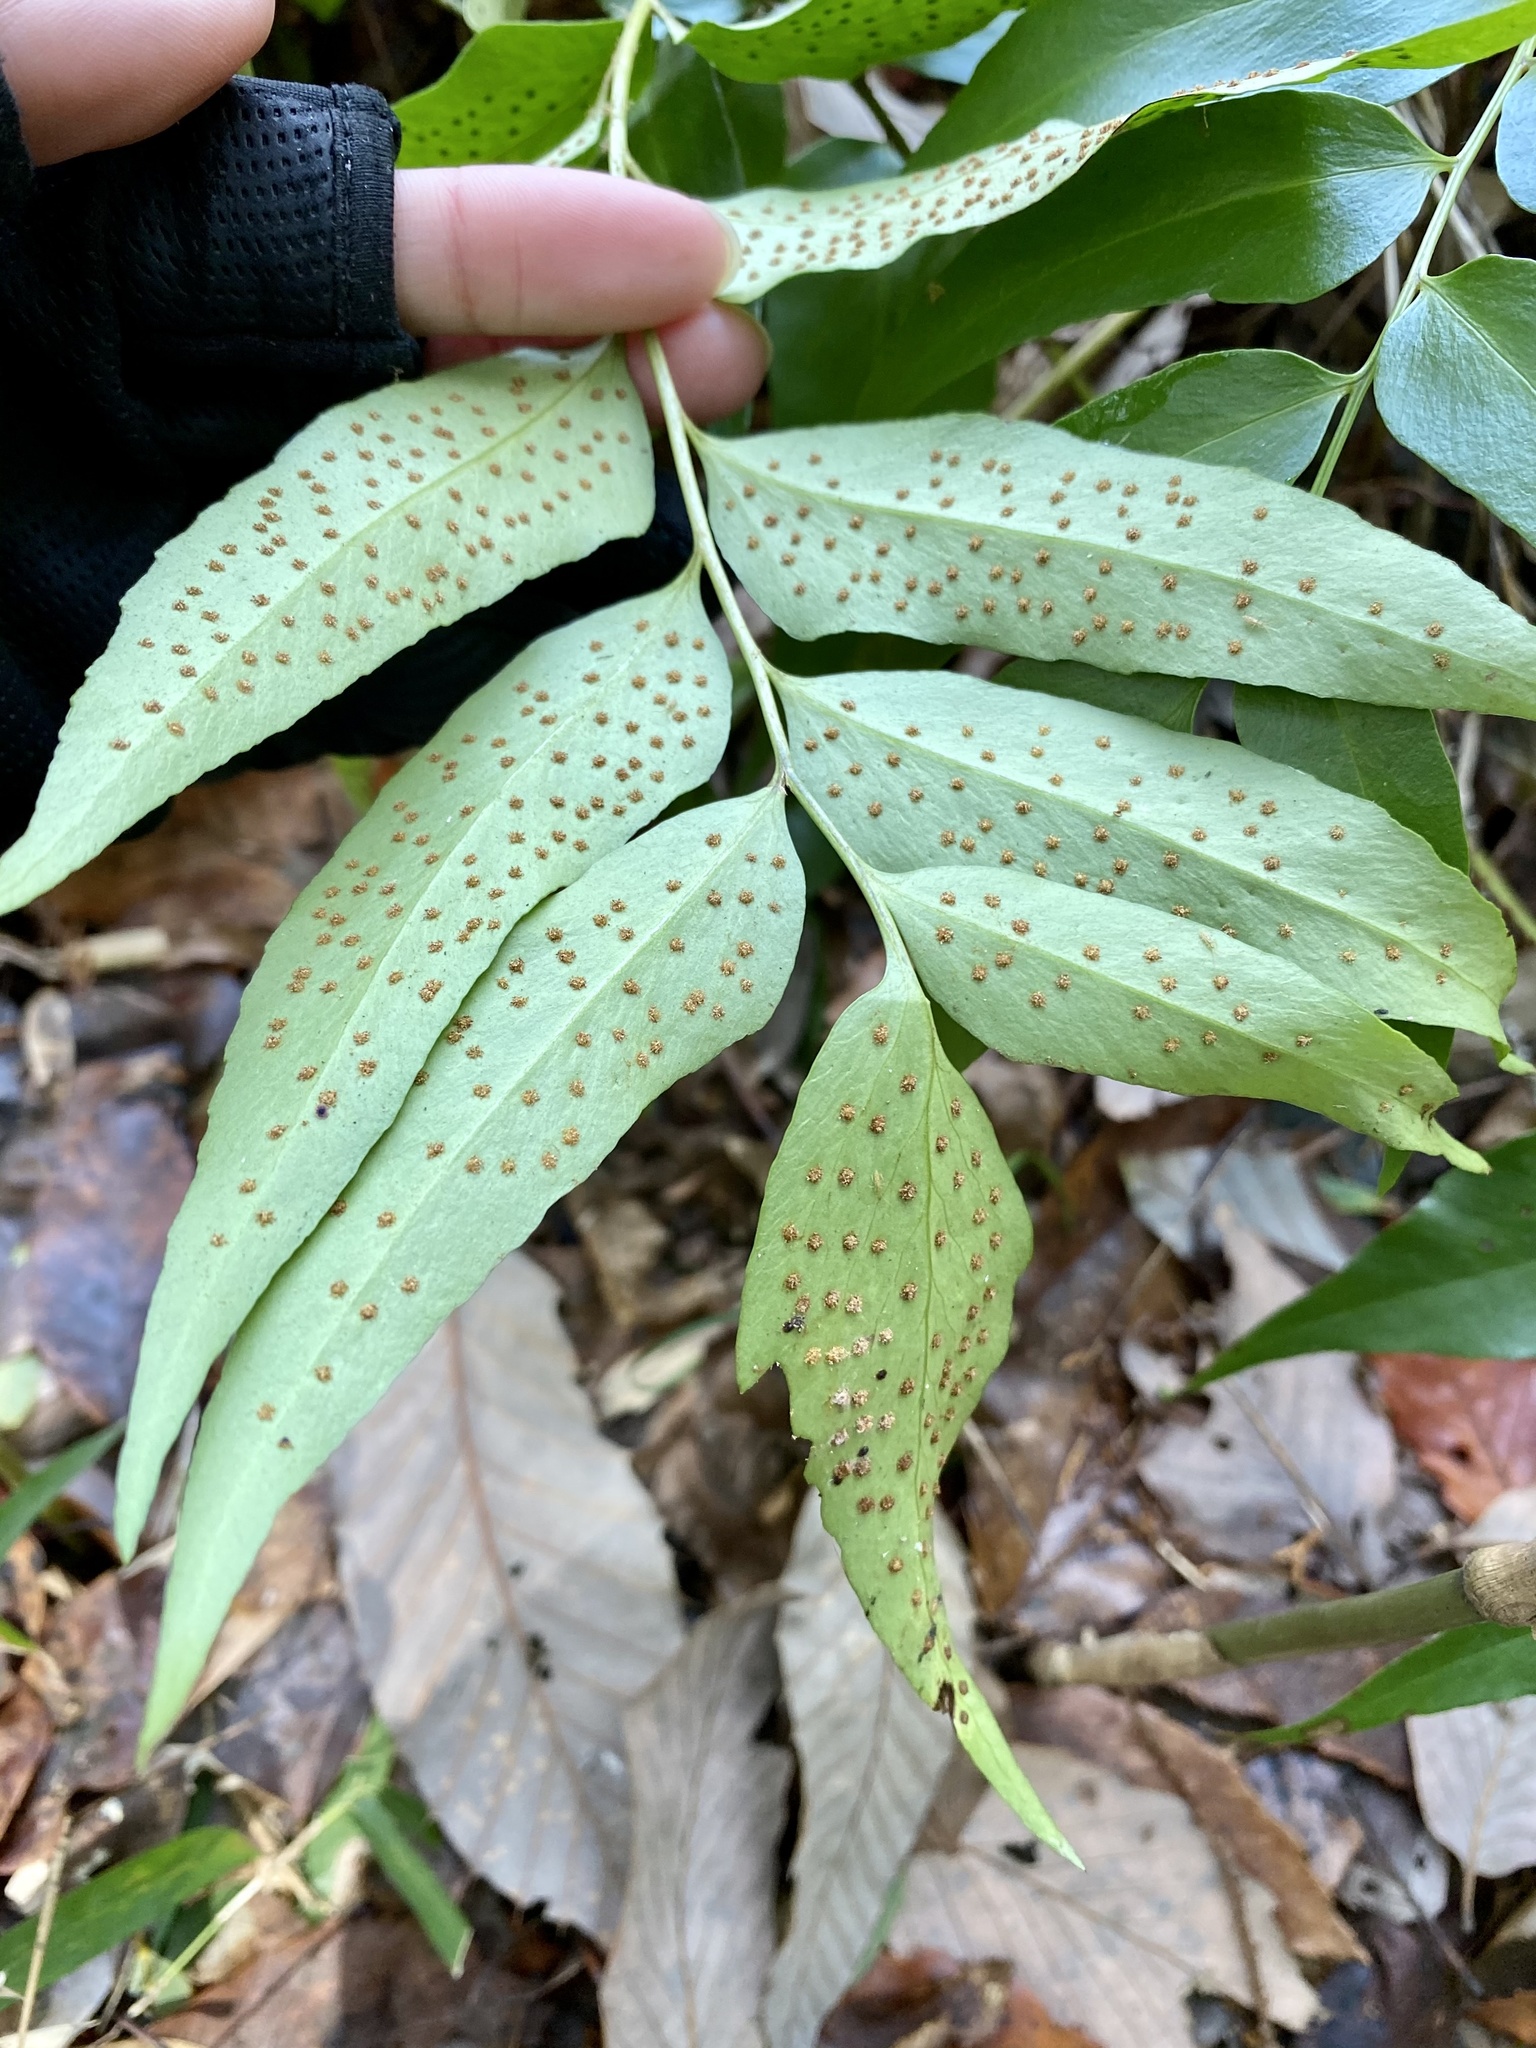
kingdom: Plantae
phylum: Tracheophyta
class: Polypodiopsida
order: Polypodiales
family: Dryopteridaceae
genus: Cyrtomium
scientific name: Cyrtomium fortunei
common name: Asian netvein hollyfern
